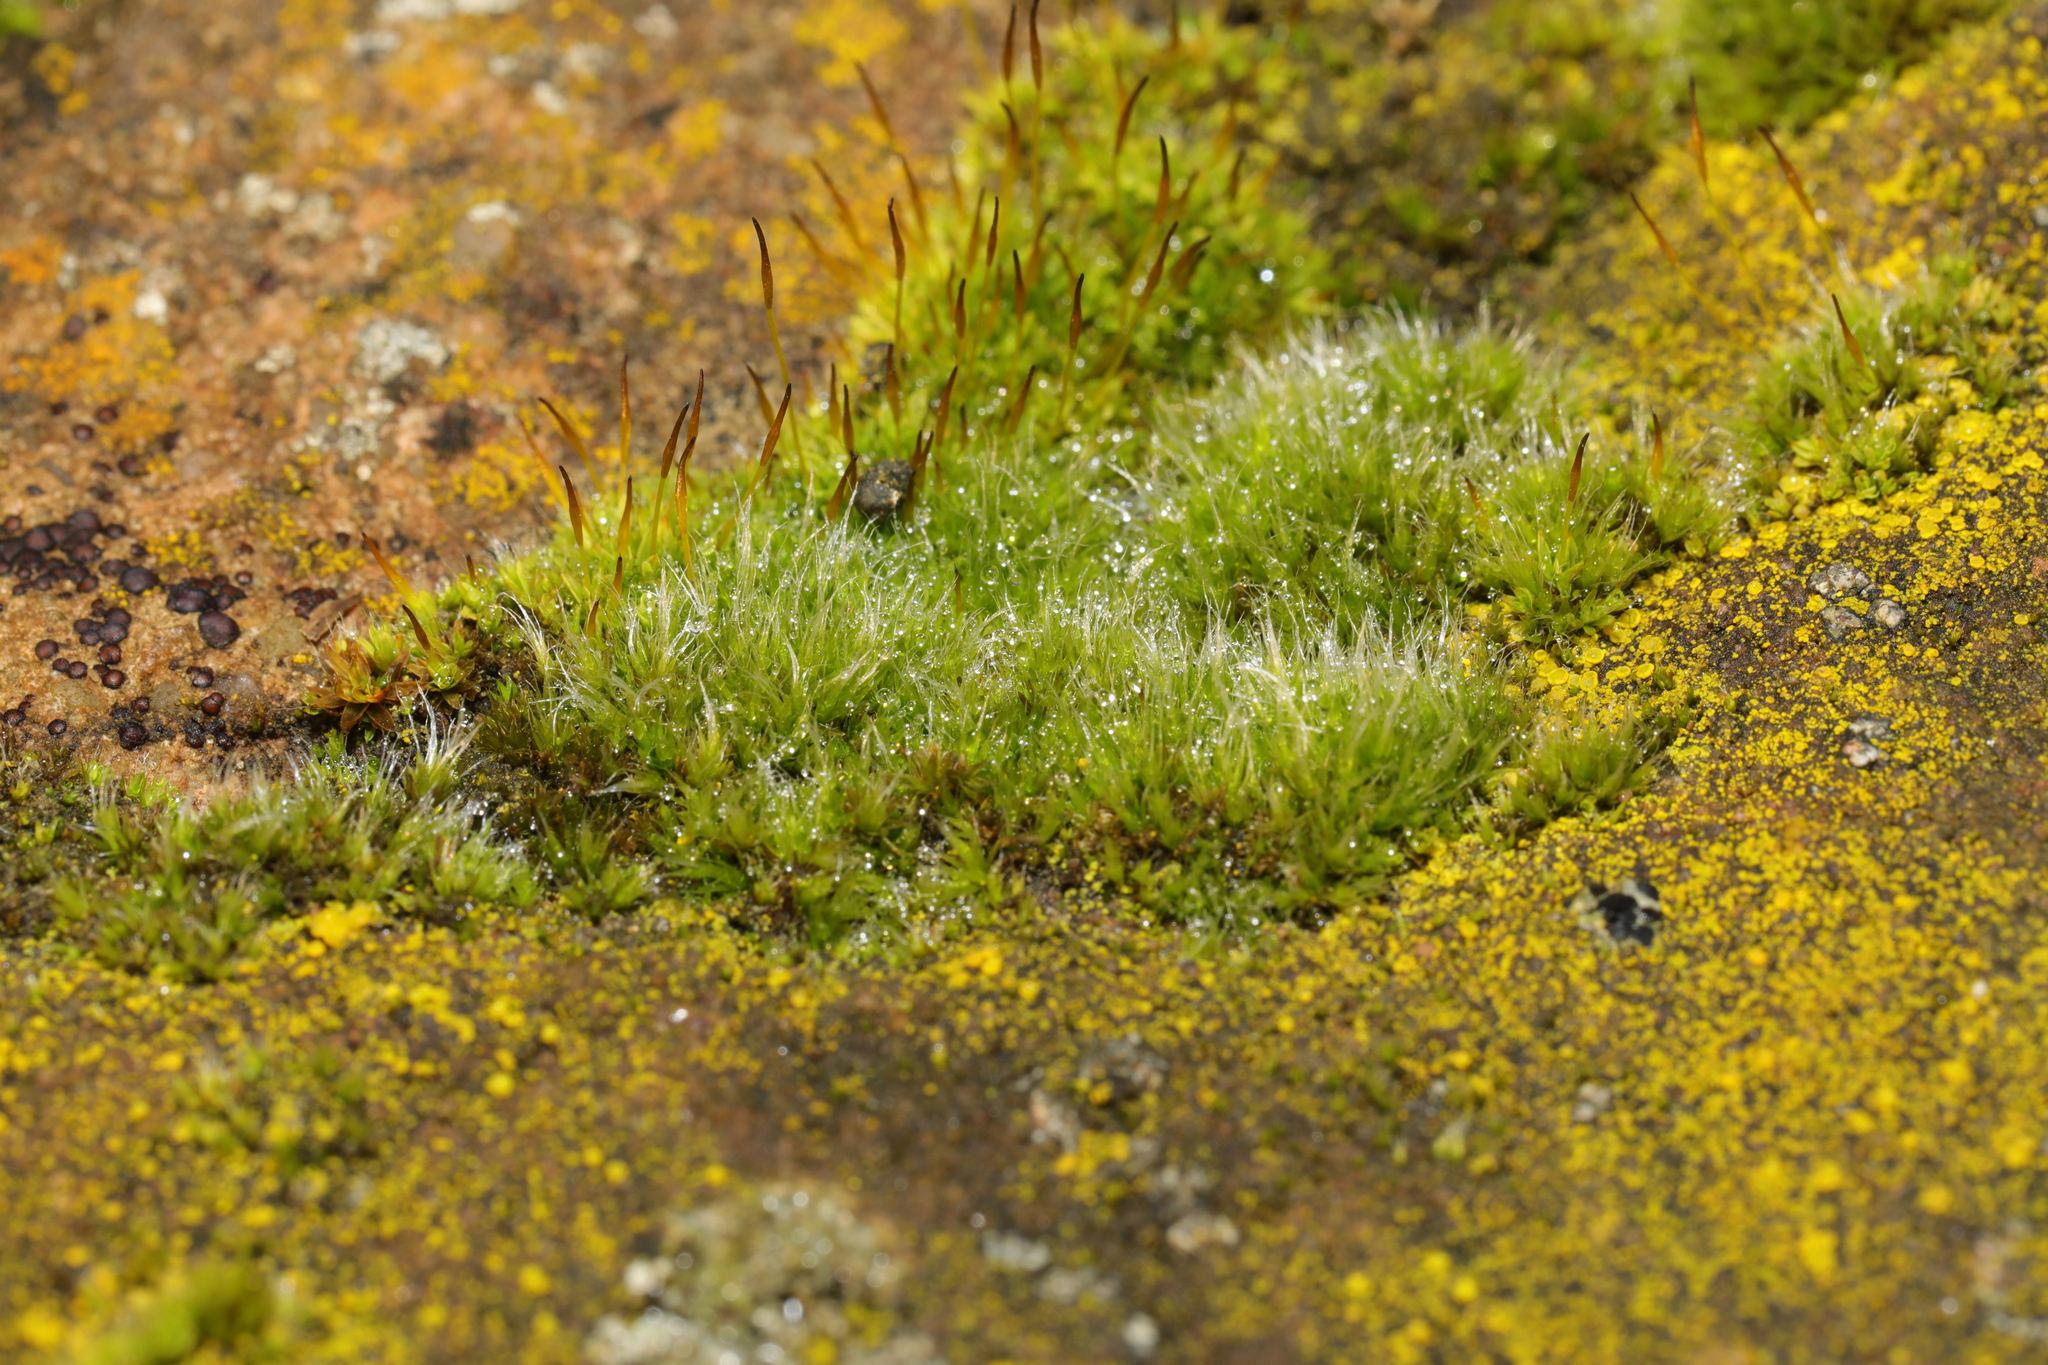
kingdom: Plantae
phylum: Bryophyta
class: Bryopsida
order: Pottiales
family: Pottiaceae
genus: Tortula
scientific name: Tortula muralis
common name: Wall screw-moss
